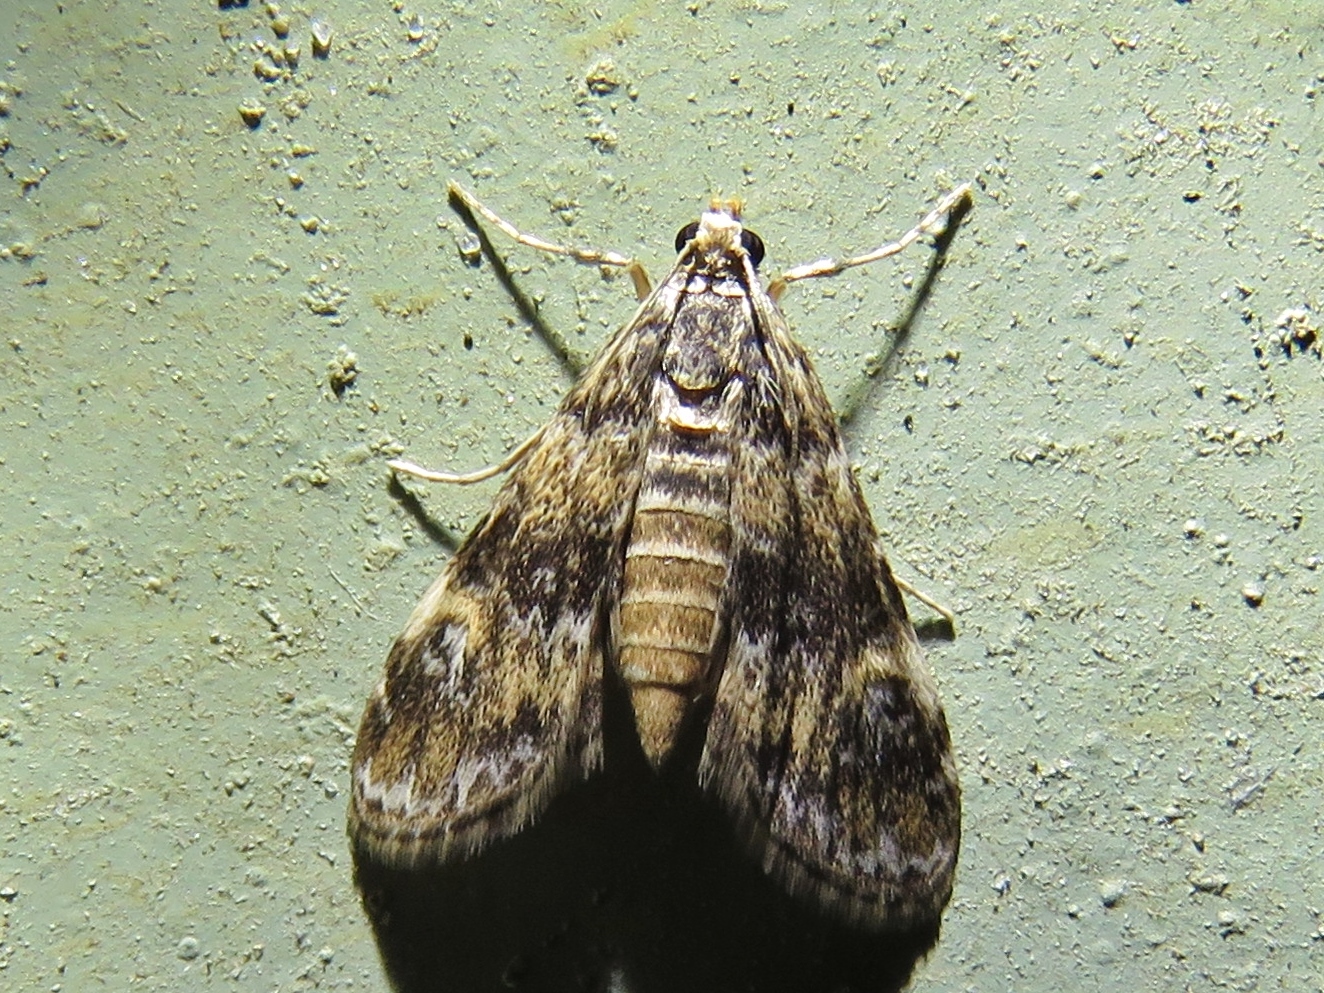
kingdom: Animalia
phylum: Arthropoda
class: Insecta
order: Lepidoptera
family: Crambidae
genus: Elophila
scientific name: Elophila obliteralis
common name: Waterlily leafcutter moth
